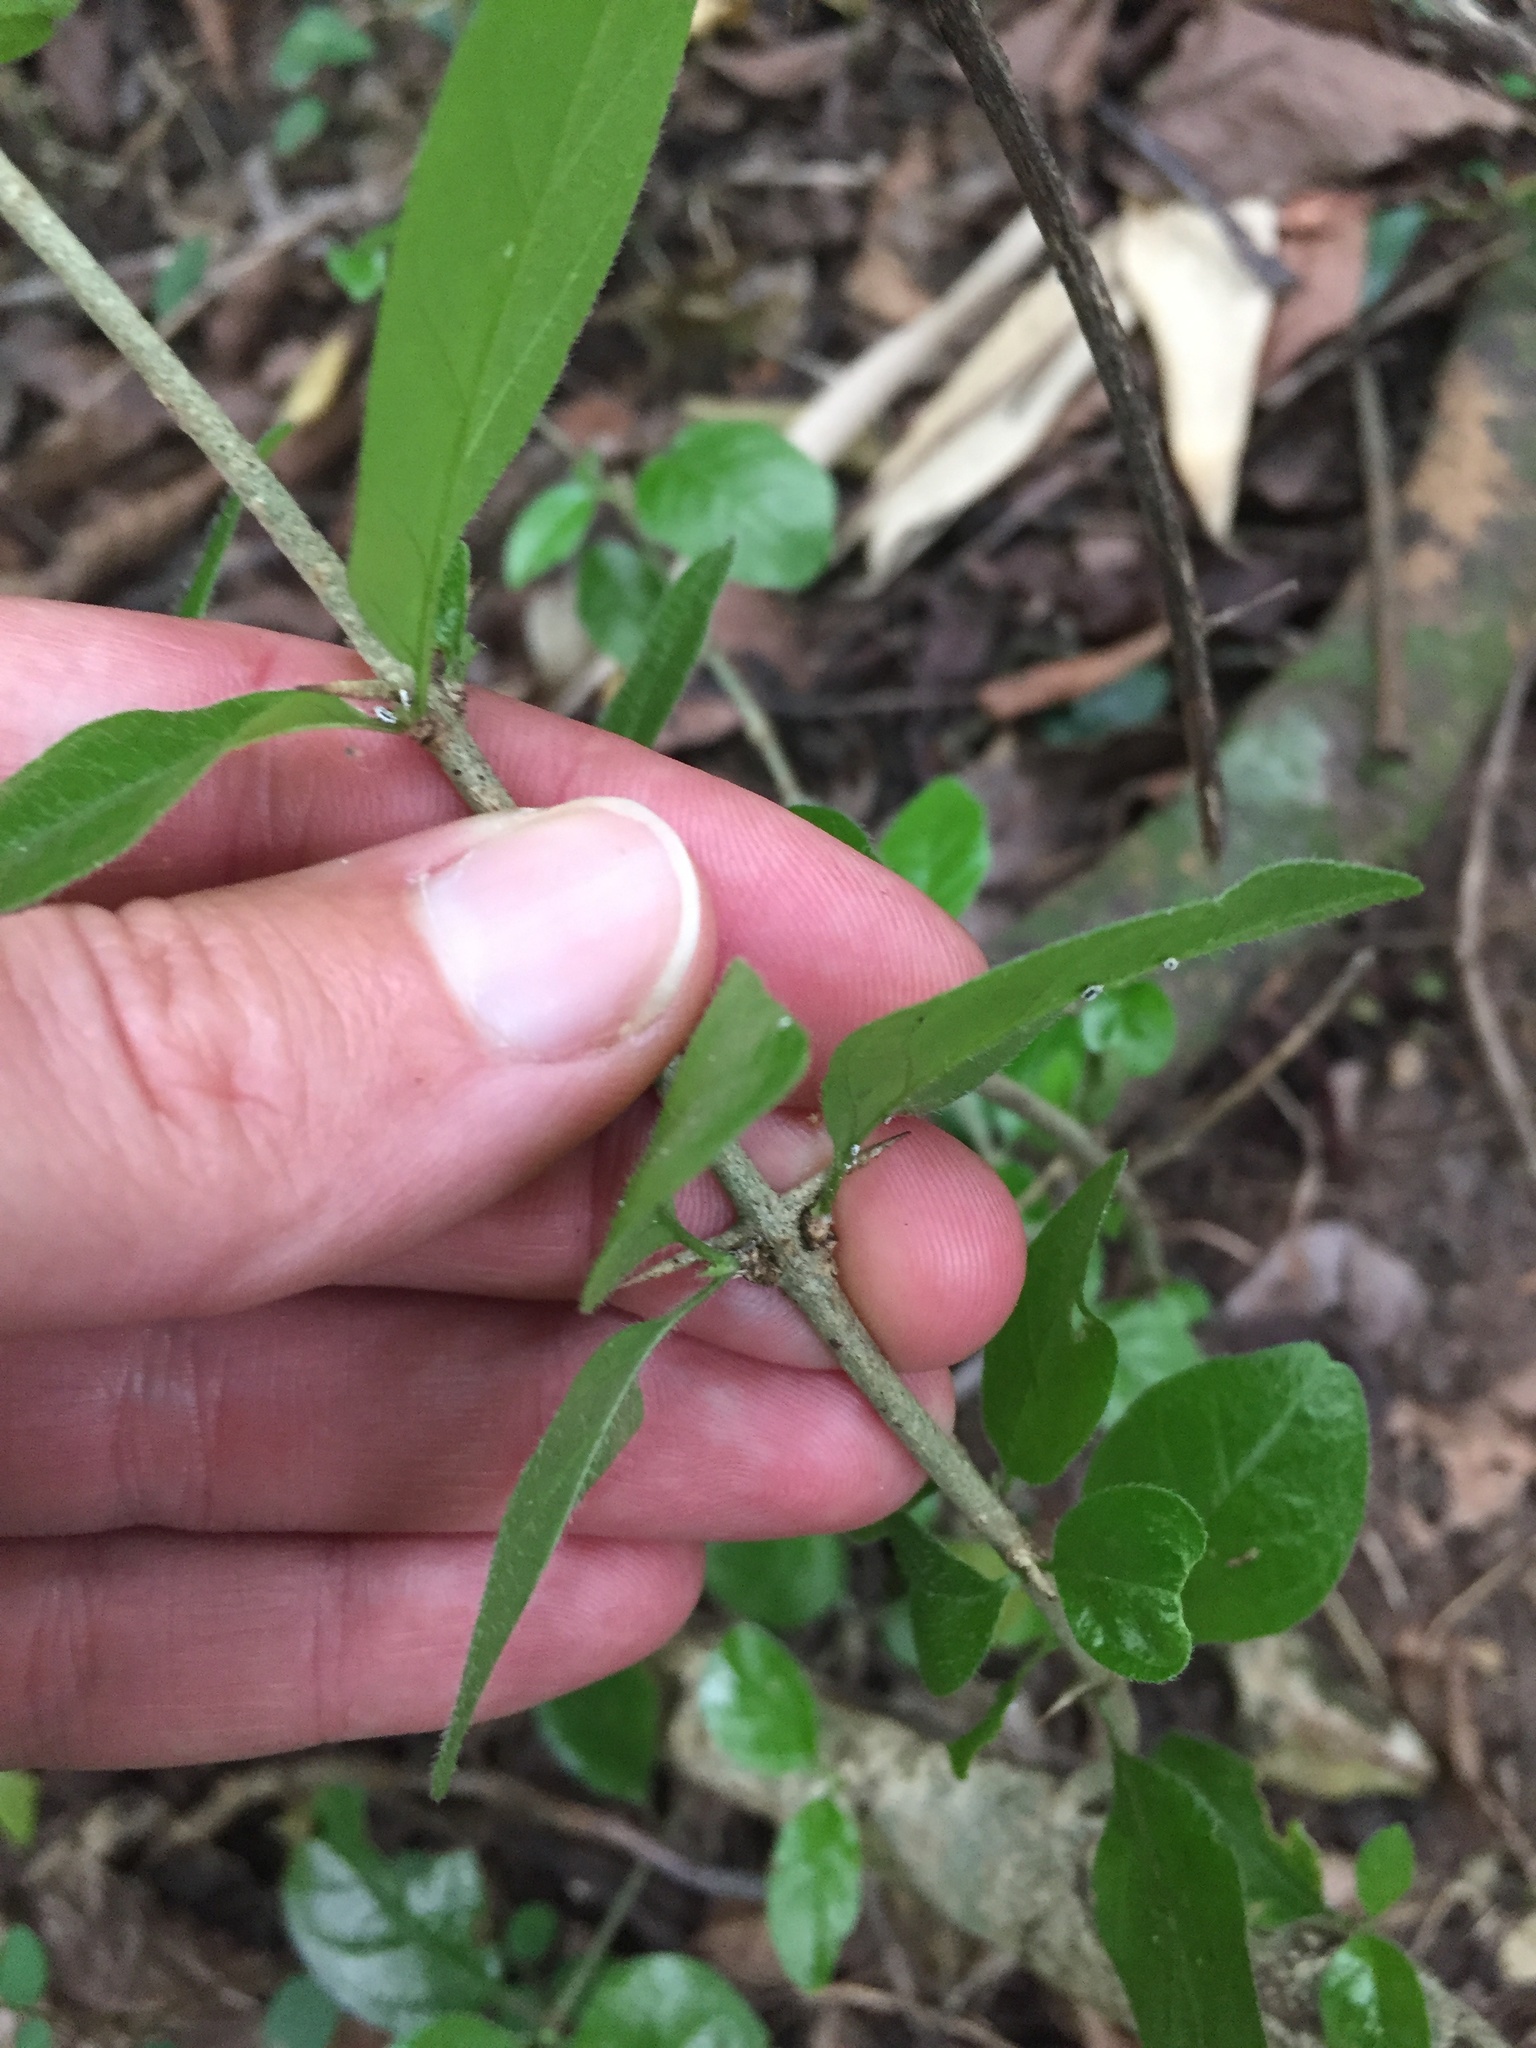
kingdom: Plantae
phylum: Tracheophyta
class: Magnoliopsida
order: Gentianales
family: Rubiaceae
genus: Canthium
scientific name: Canthium ciliatum
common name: Hairy turkey-berry
